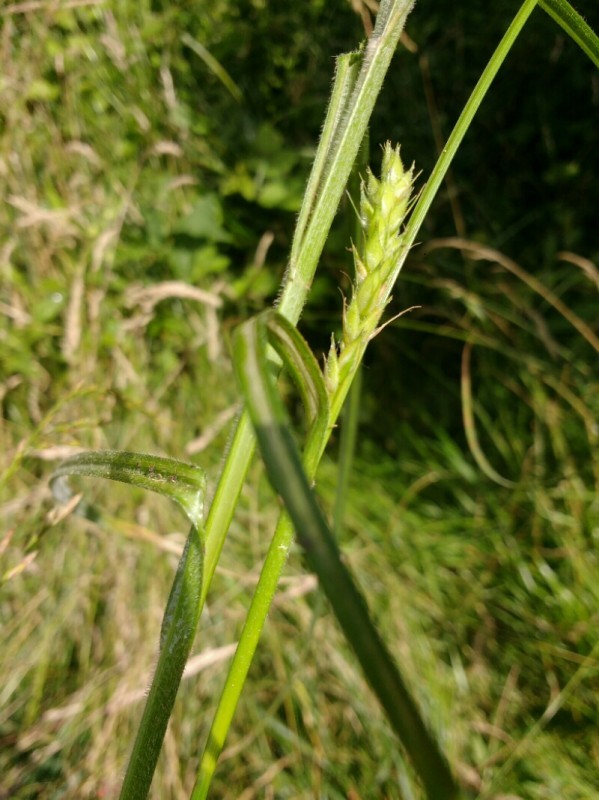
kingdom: Plantae
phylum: Tracheophyta
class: Liliopsida
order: Poales
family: Cyperaceae
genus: Carex
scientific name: Carex hirta
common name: Hairy sedge
